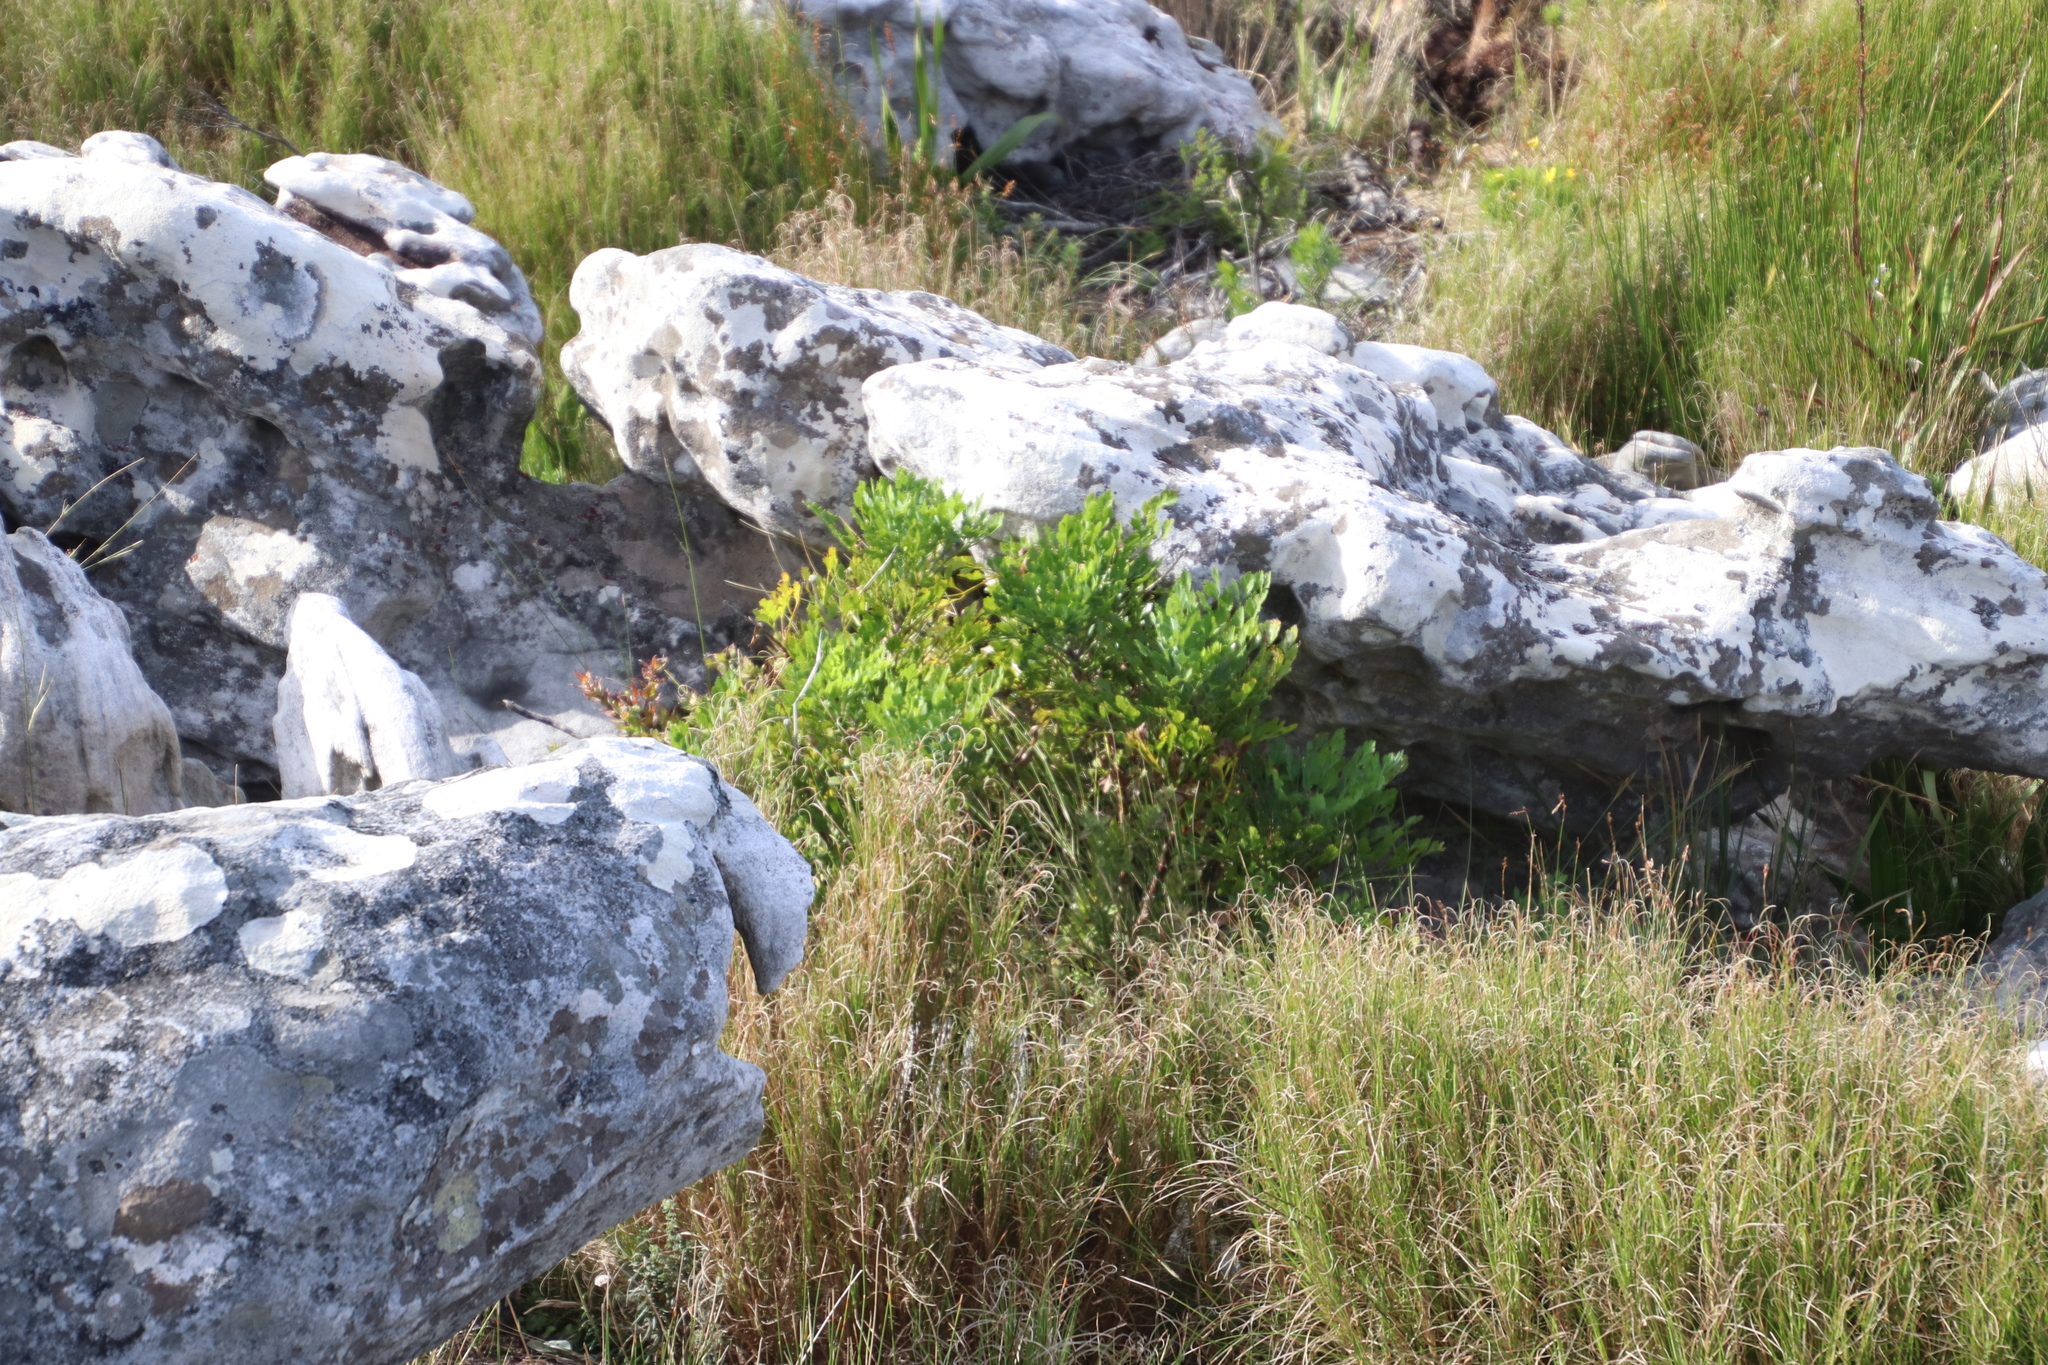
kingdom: Plantae
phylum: Tracheophyta
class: Magnoliopsida
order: Apiales
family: Apiaceae
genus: Notobubon
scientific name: Notobubon galbanum
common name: Blisterbush
